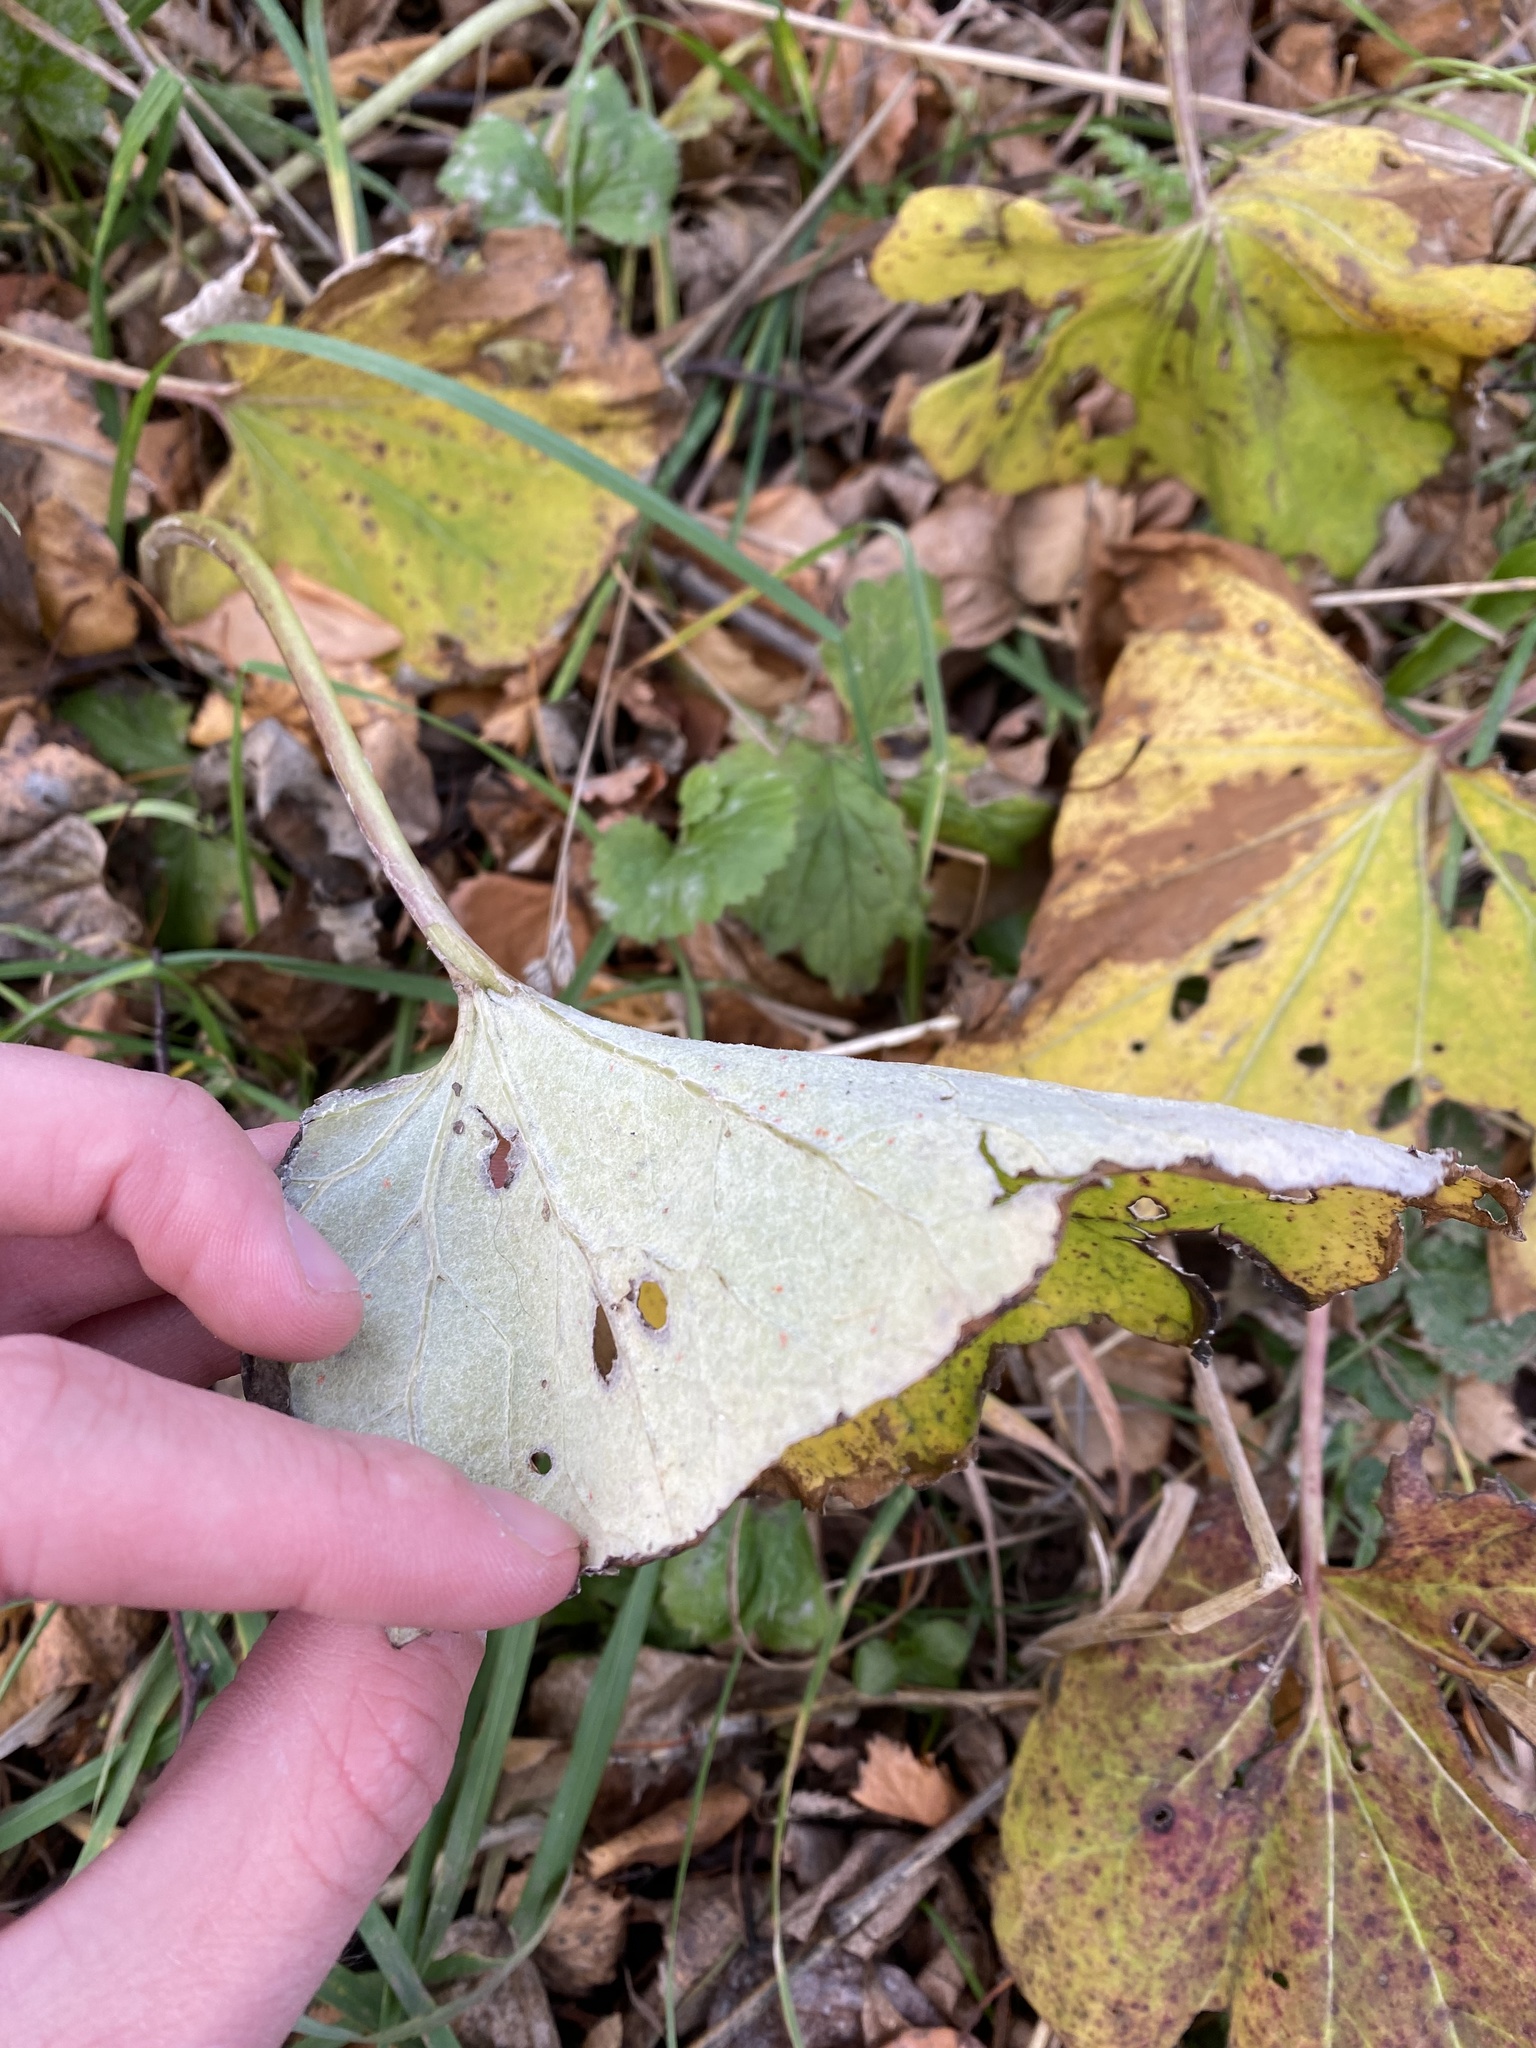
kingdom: Plantae
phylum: Tracheophyta
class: Magnoliopsida
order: Asterales
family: Asteraceae
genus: Tussilago
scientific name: Tussilago farfara
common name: Coltsfoot
